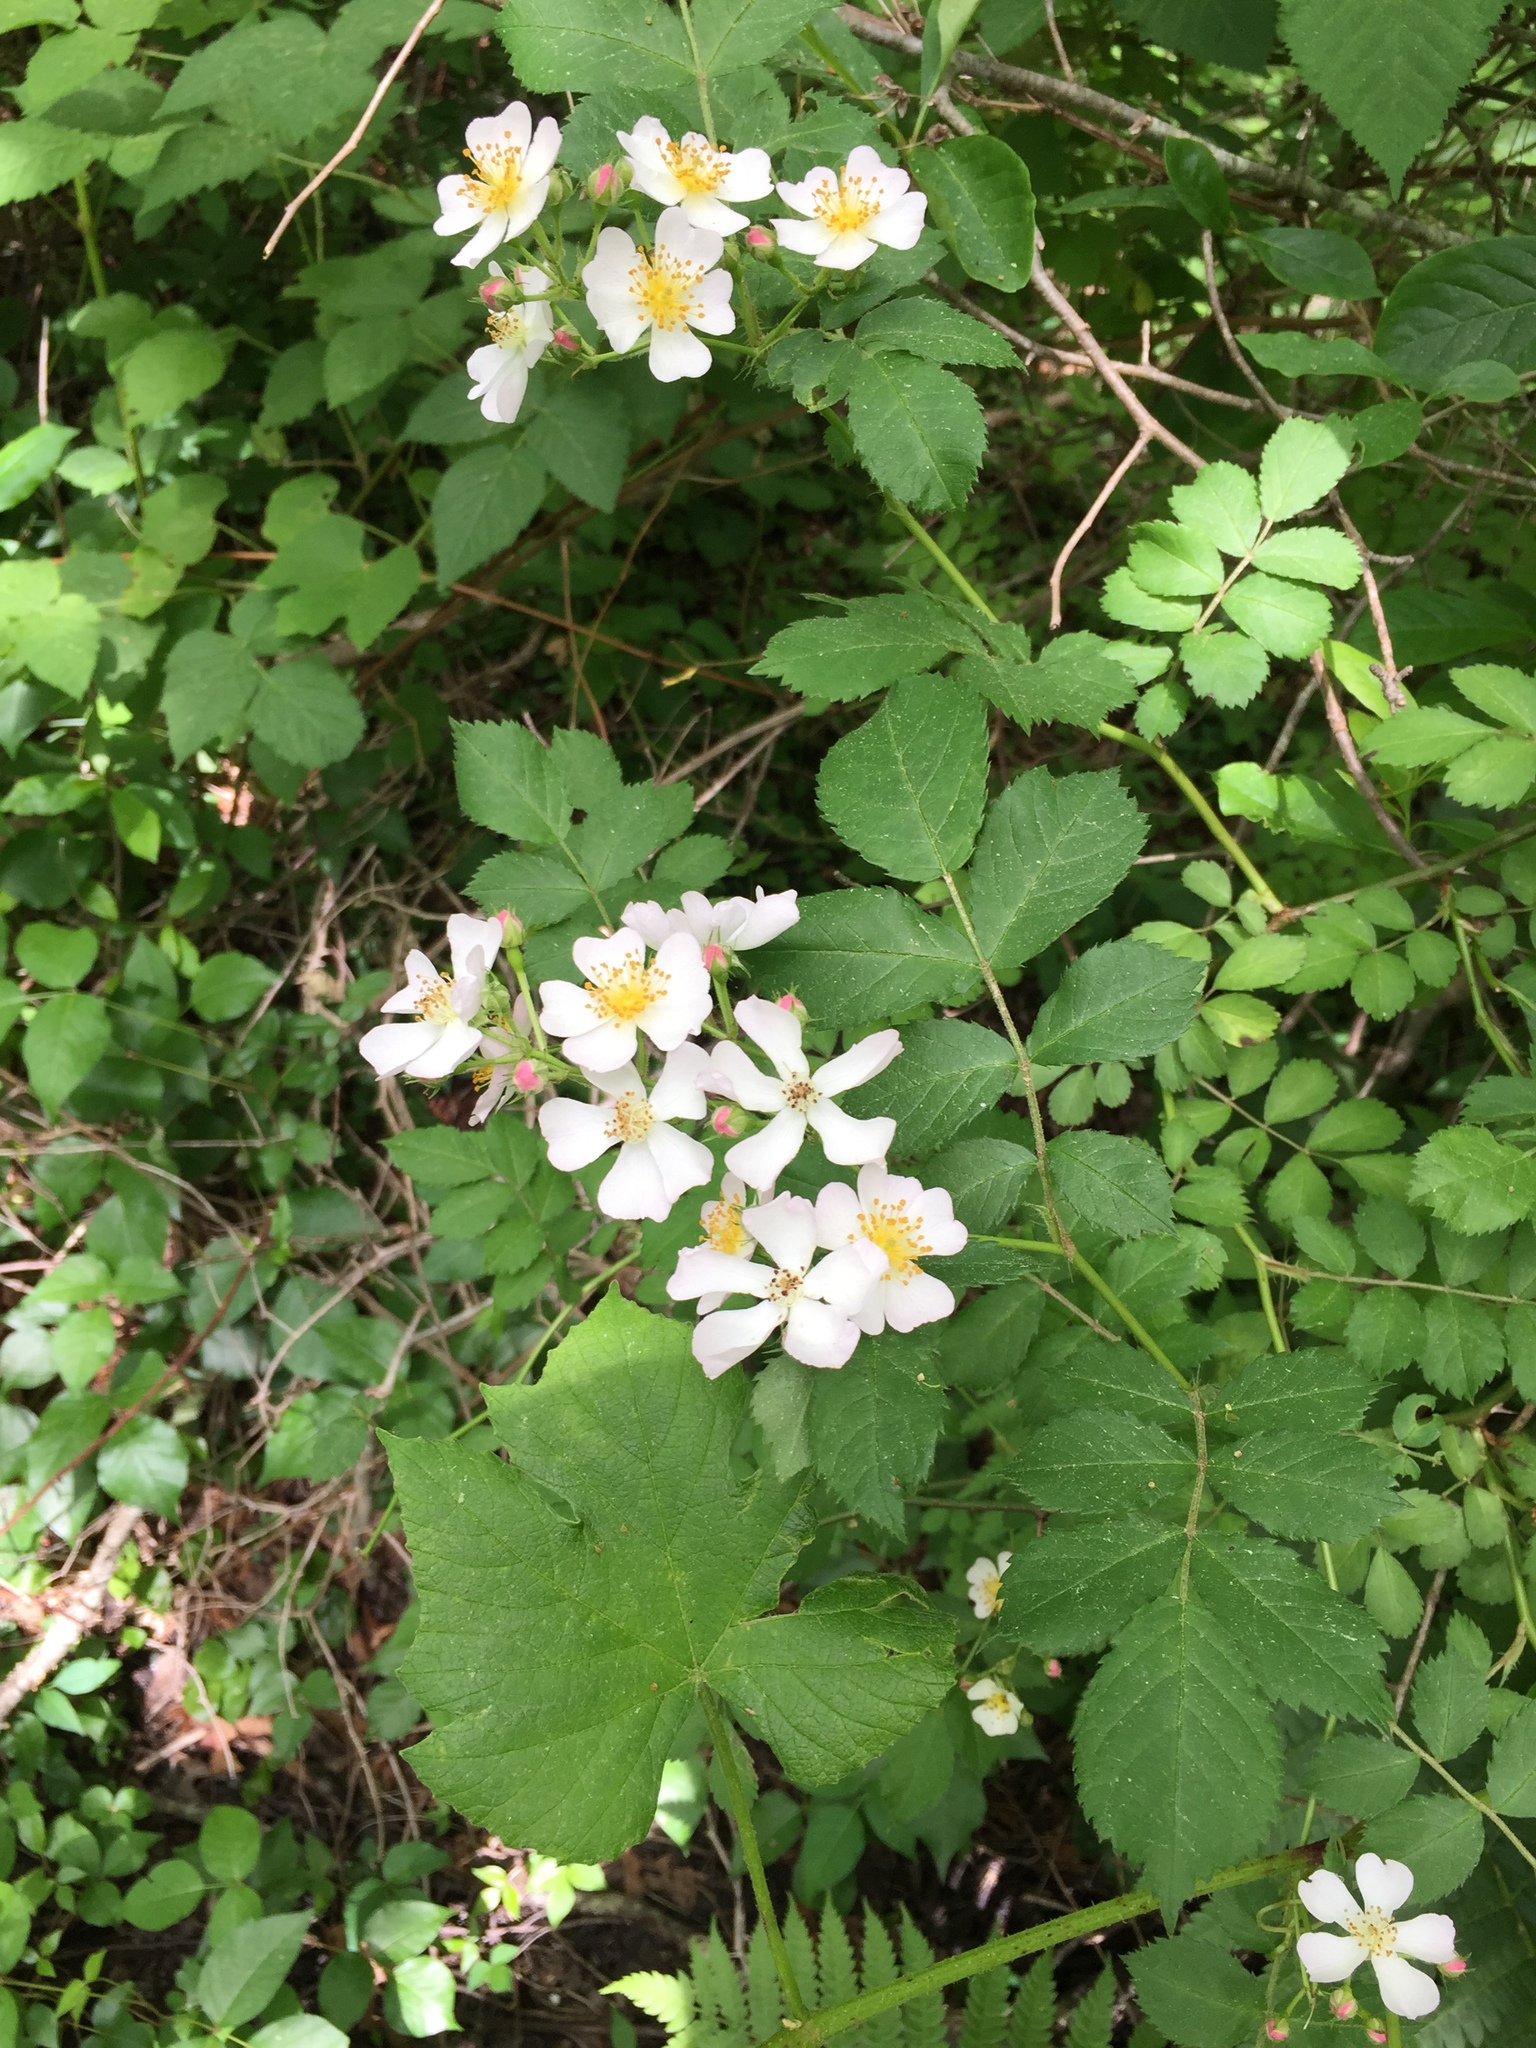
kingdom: Plantae
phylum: Tracheophyta
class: Magnoliopsida
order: Rosales
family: Rosaceae
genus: Rosa
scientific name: Rosa multiflora
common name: Multiflora rose
